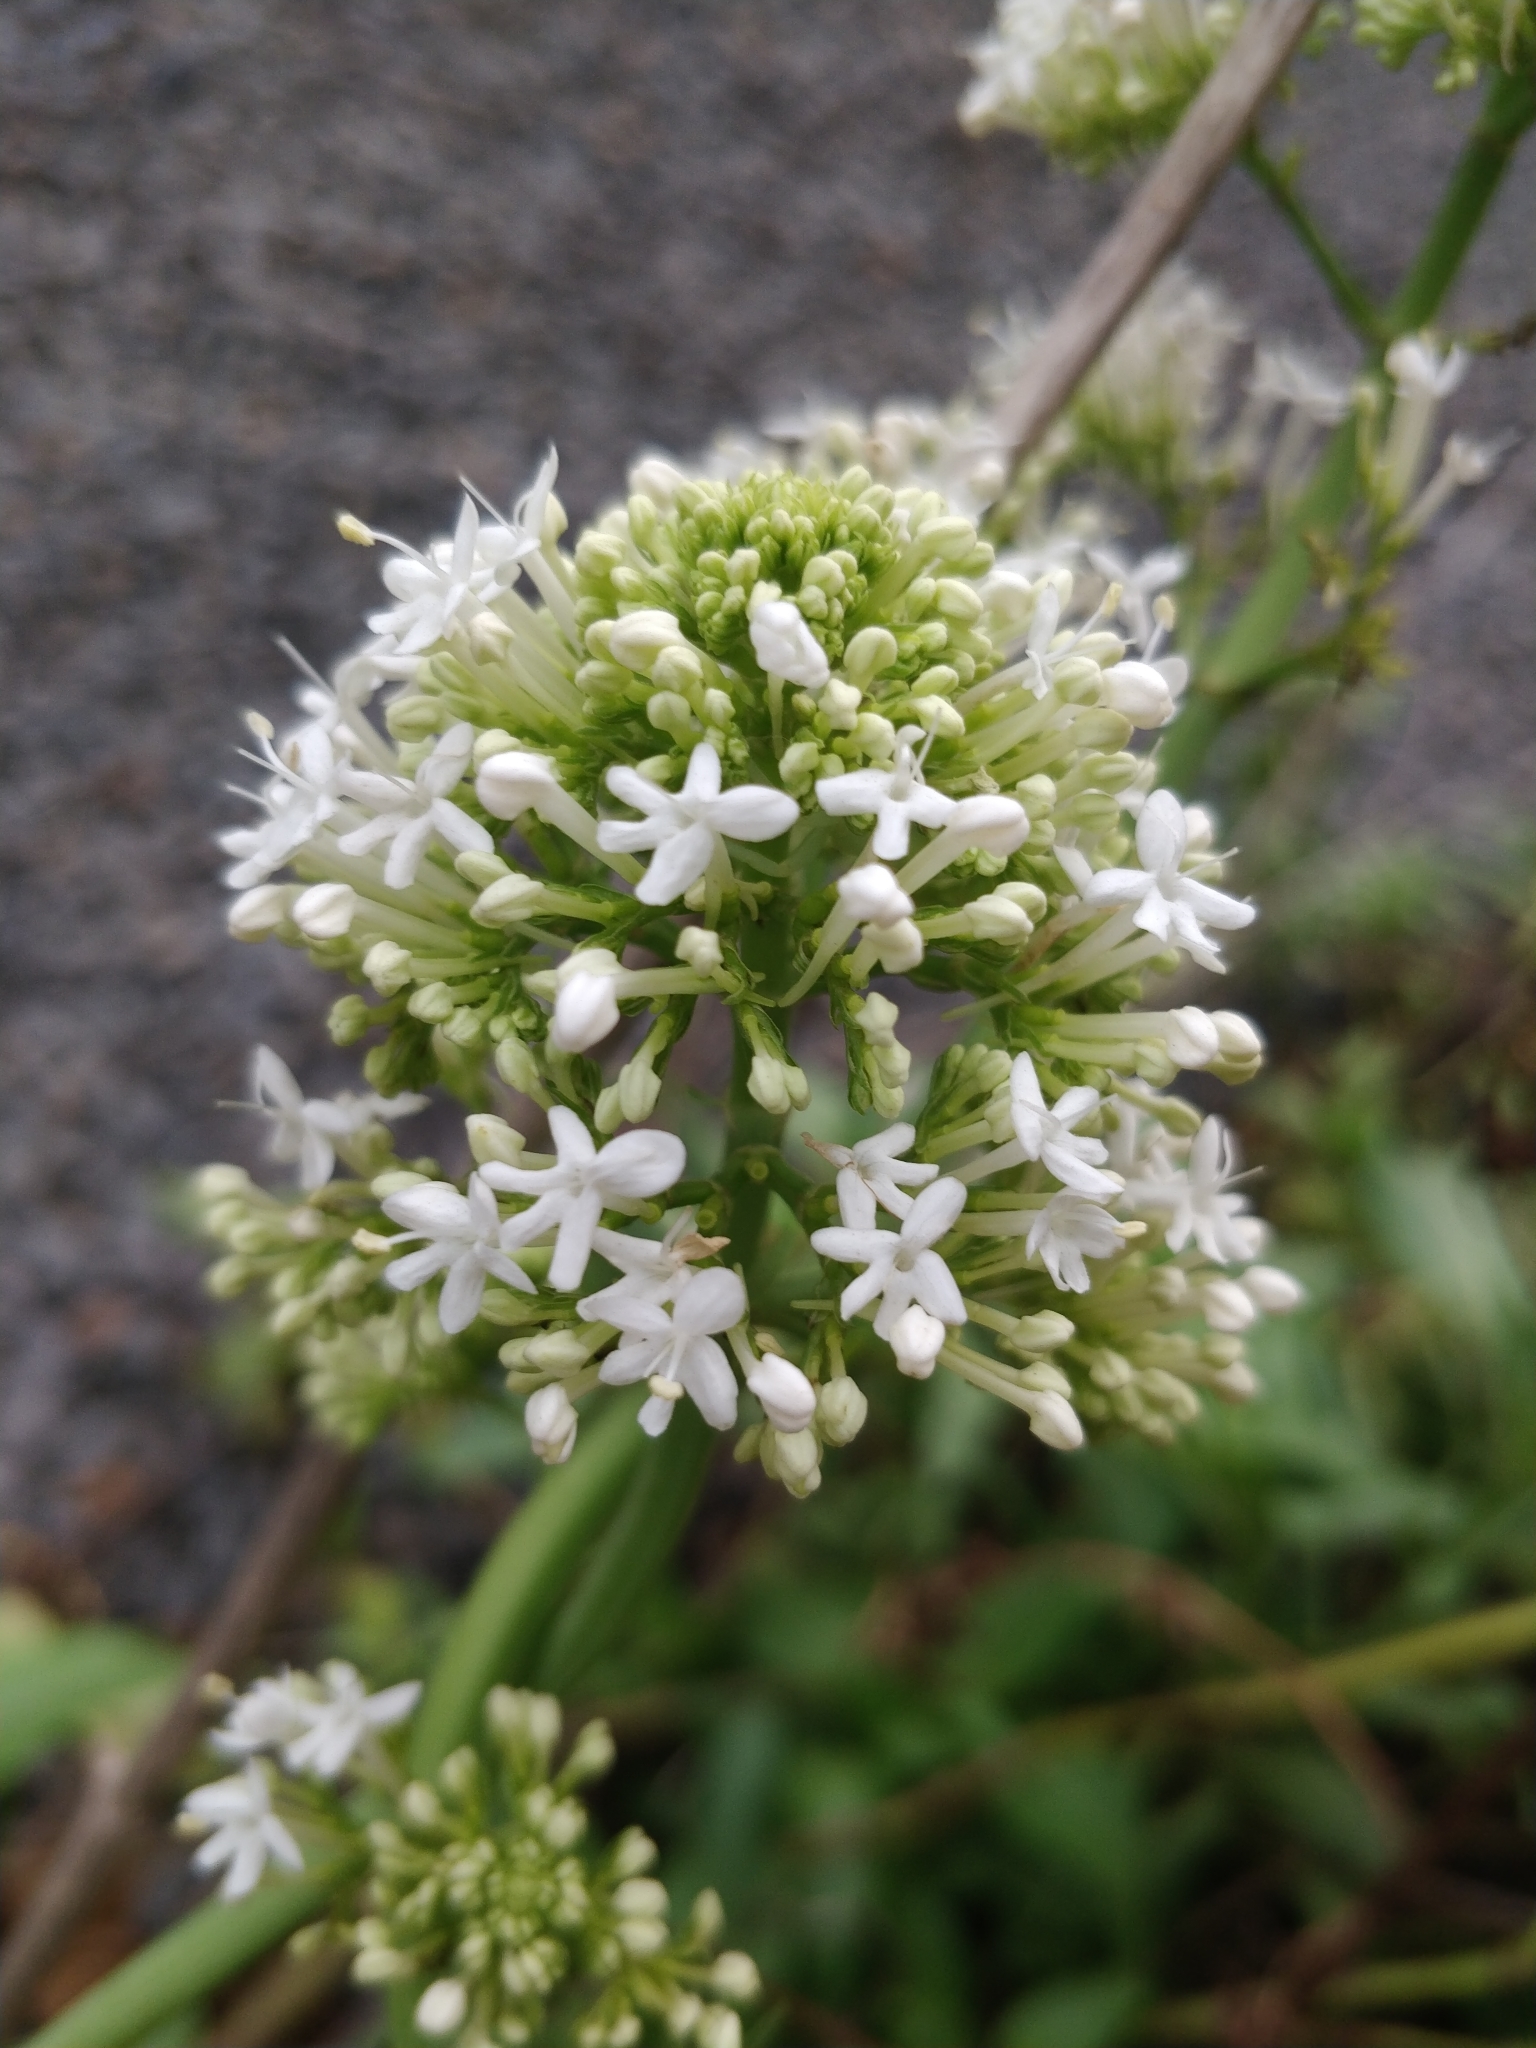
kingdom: Plantae
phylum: Tracheophyta
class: Magnoliopsida
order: Dipsacales
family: Caprifoliaceae
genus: Centranthus
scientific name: Centranthus ruber
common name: Red valerian
